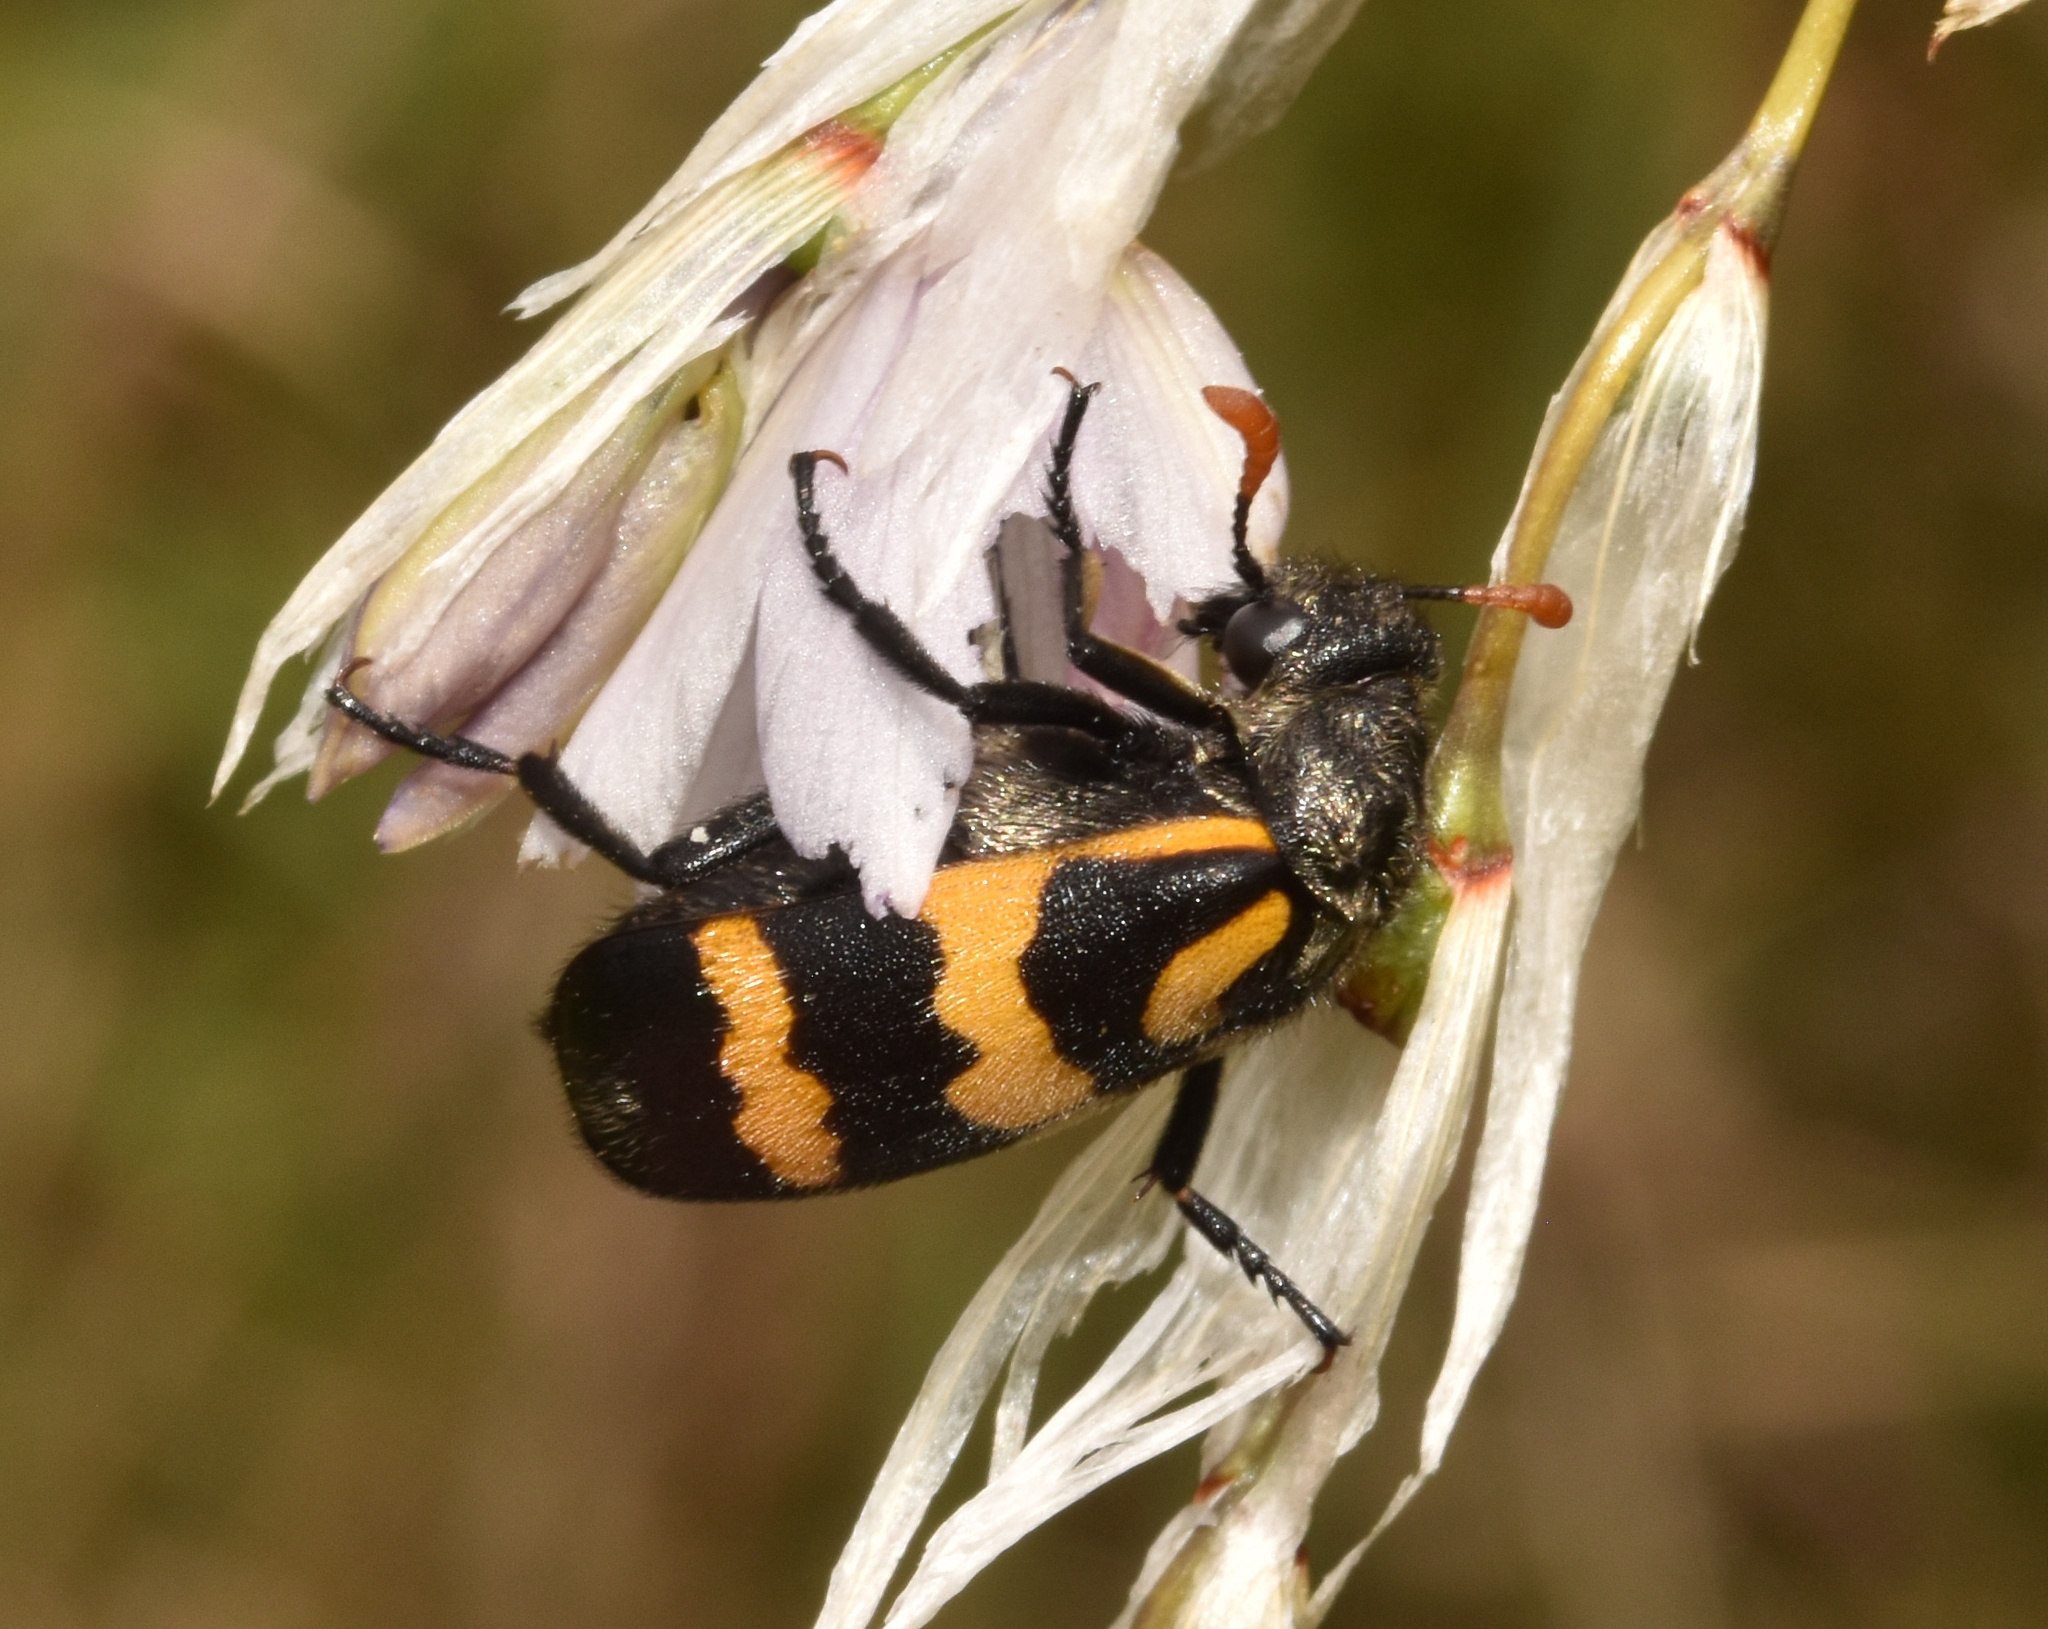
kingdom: Animalia
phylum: Arthropoda
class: Insecta
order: Coleoptera
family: Meloidae
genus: Meloe
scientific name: Meloe lunata
